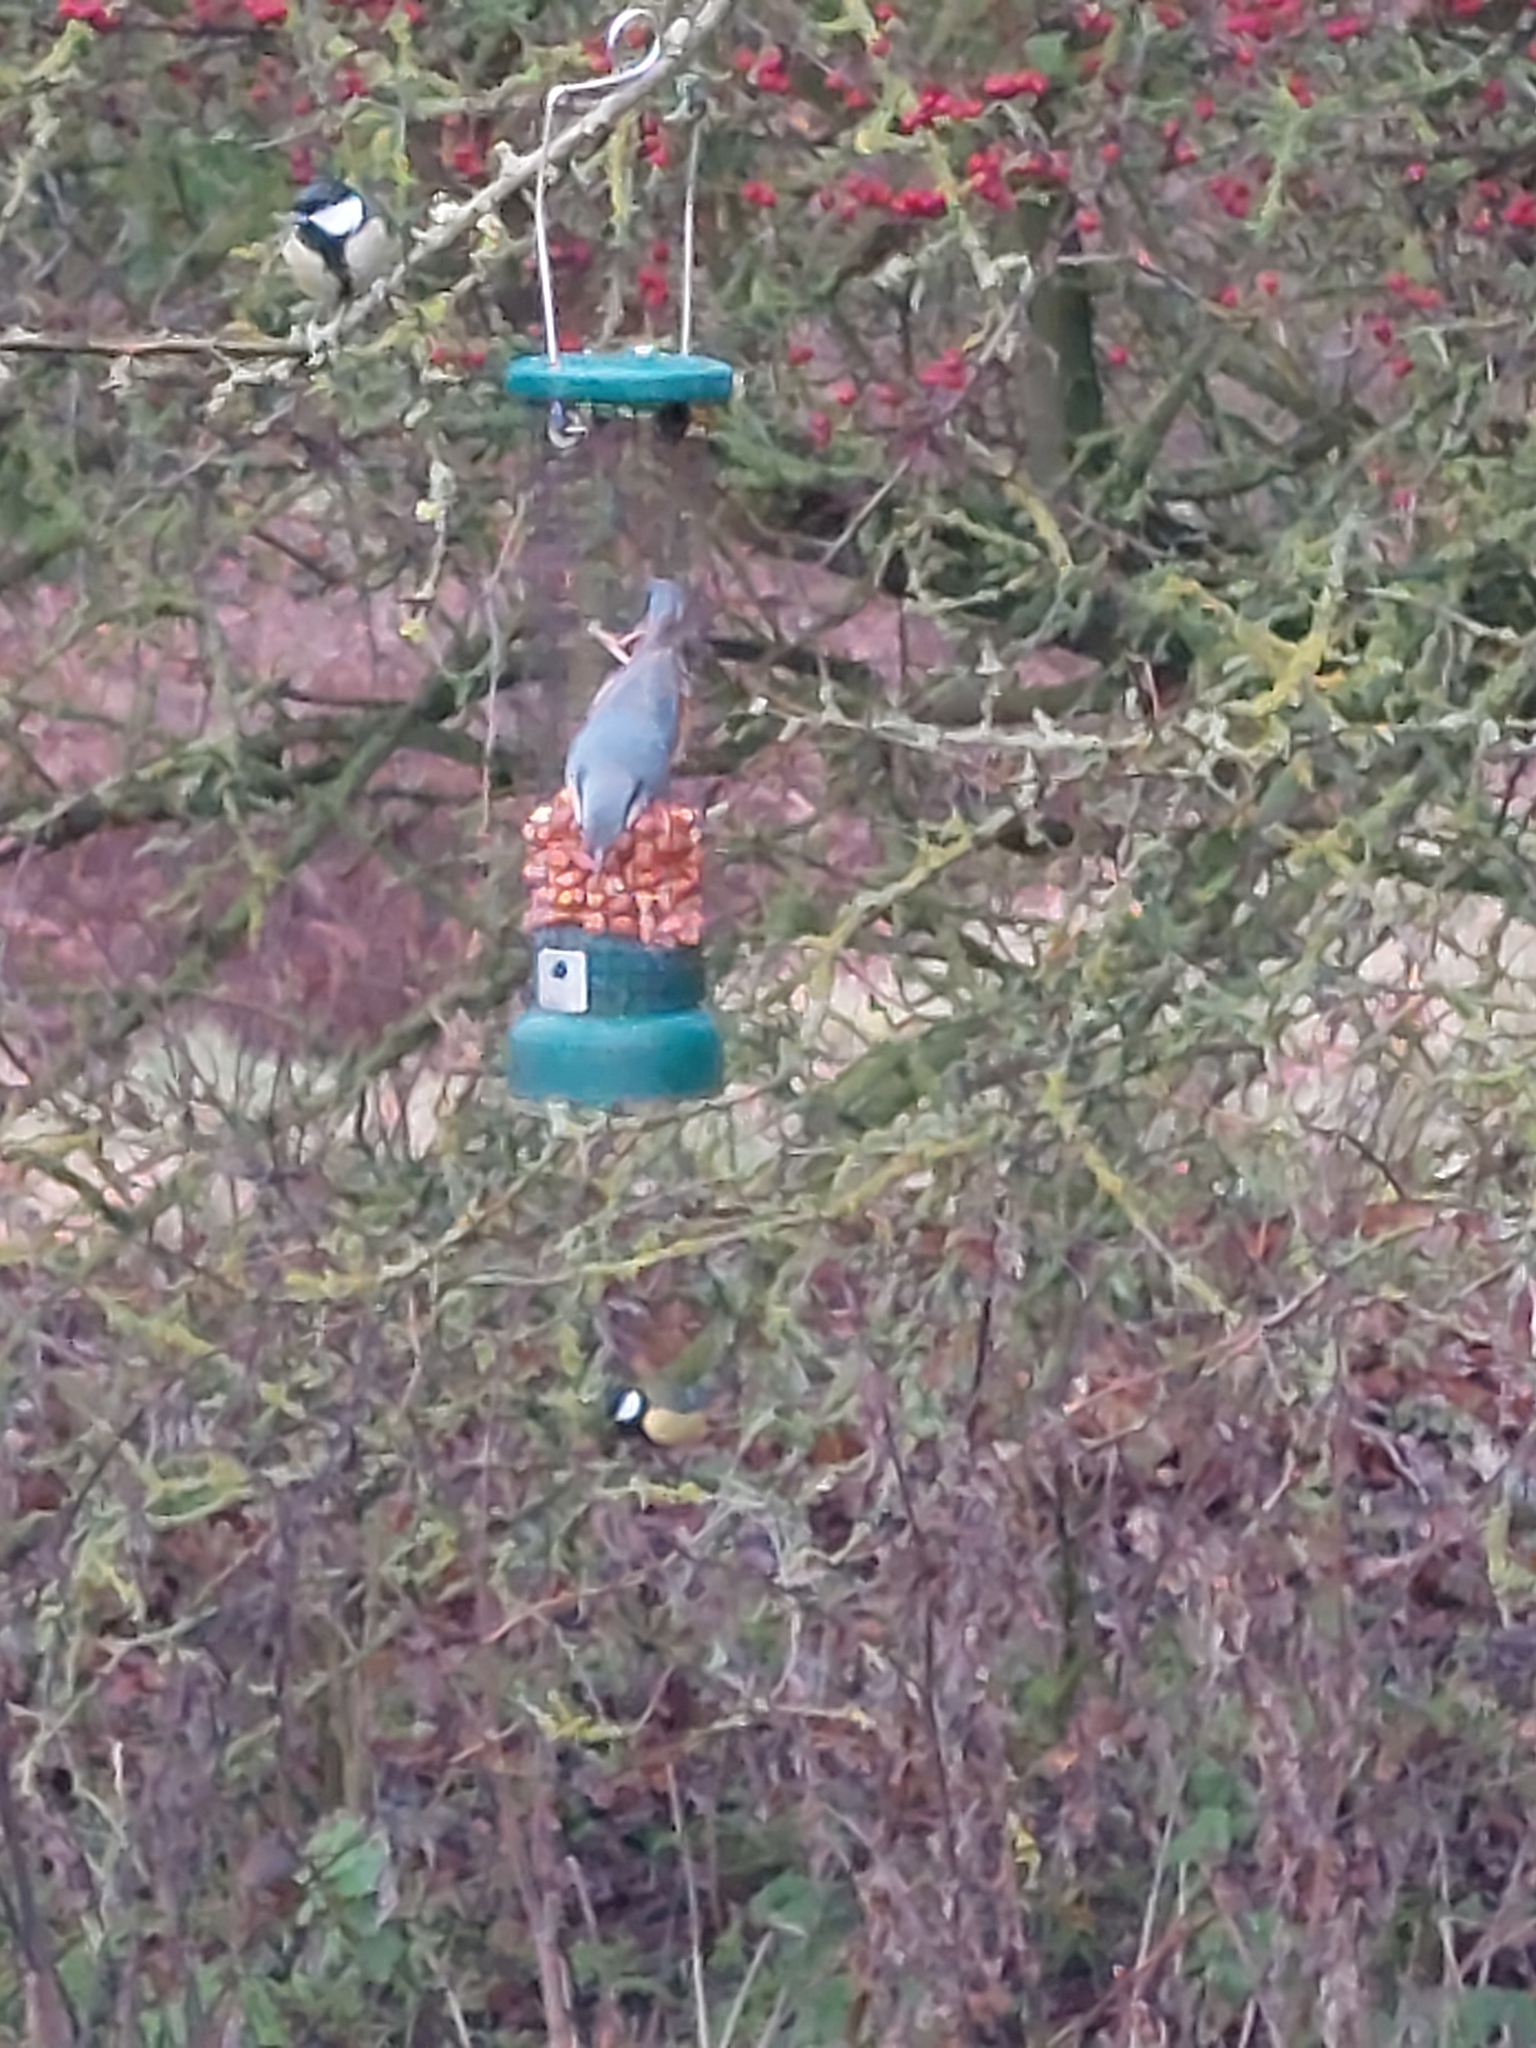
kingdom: Animalia
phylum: Chordata
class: Aves
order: Passeriformes
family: Sittidae
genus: Sitta
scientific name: Sitta europaea
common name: Eurasian nuthatch
